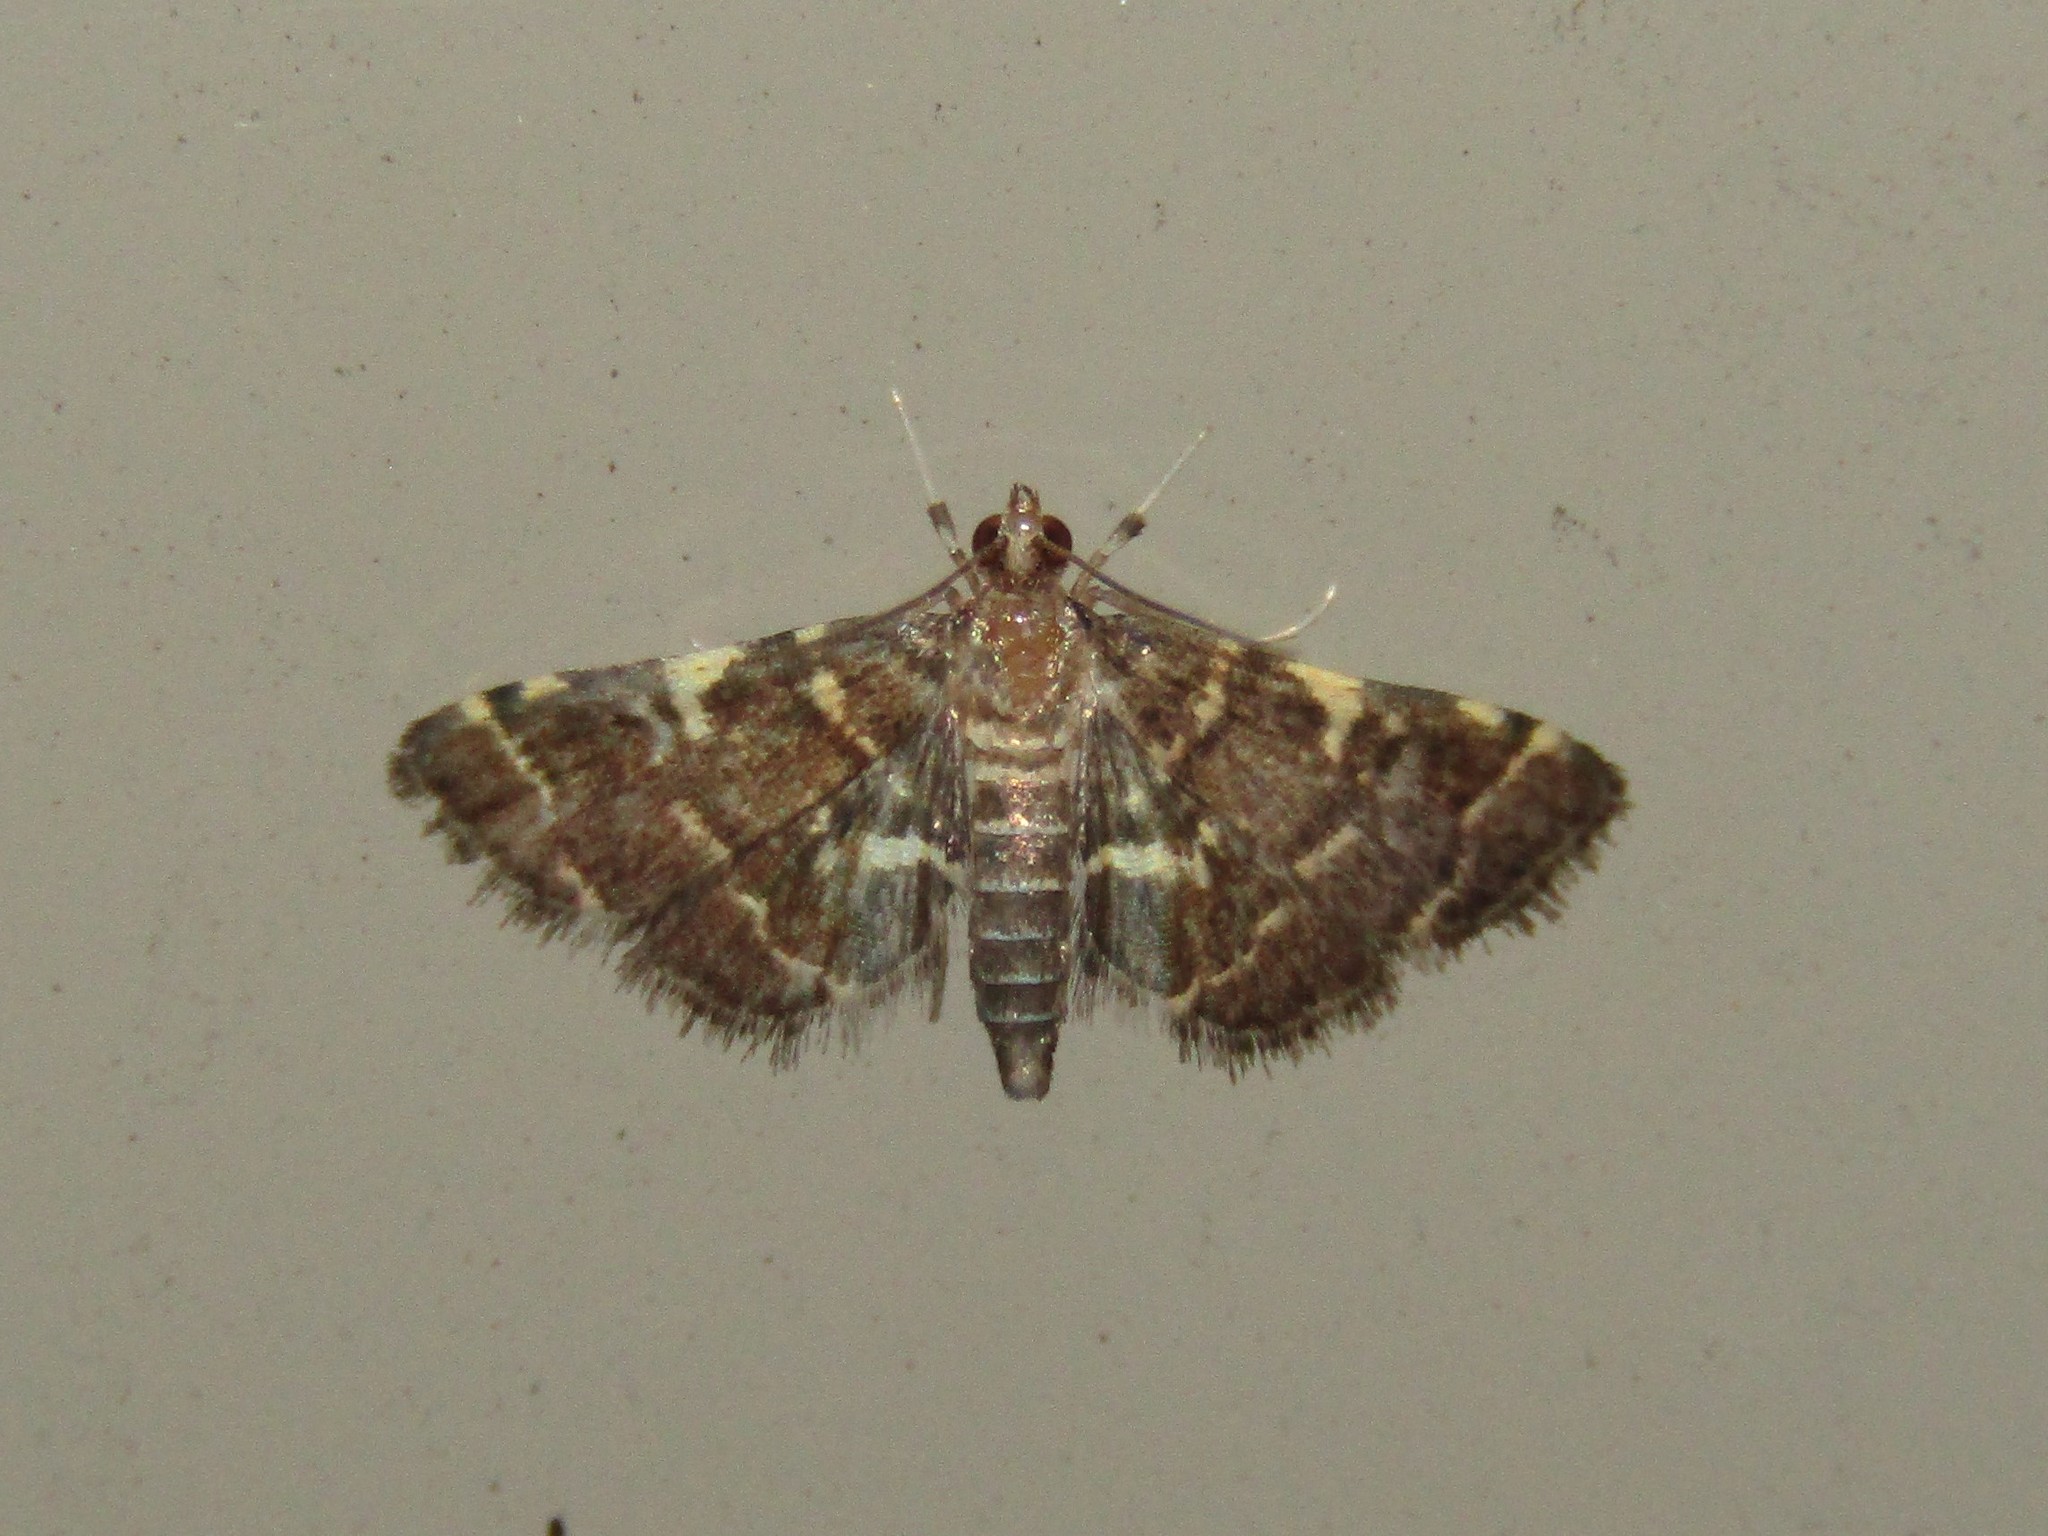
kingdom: Animalia
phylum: Arthropoda
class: Insecta
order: Lepidoptera
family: Crambidae
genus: Anageshna
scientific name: Anageshna primordialis
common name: Yellow-spotted webworm moth
